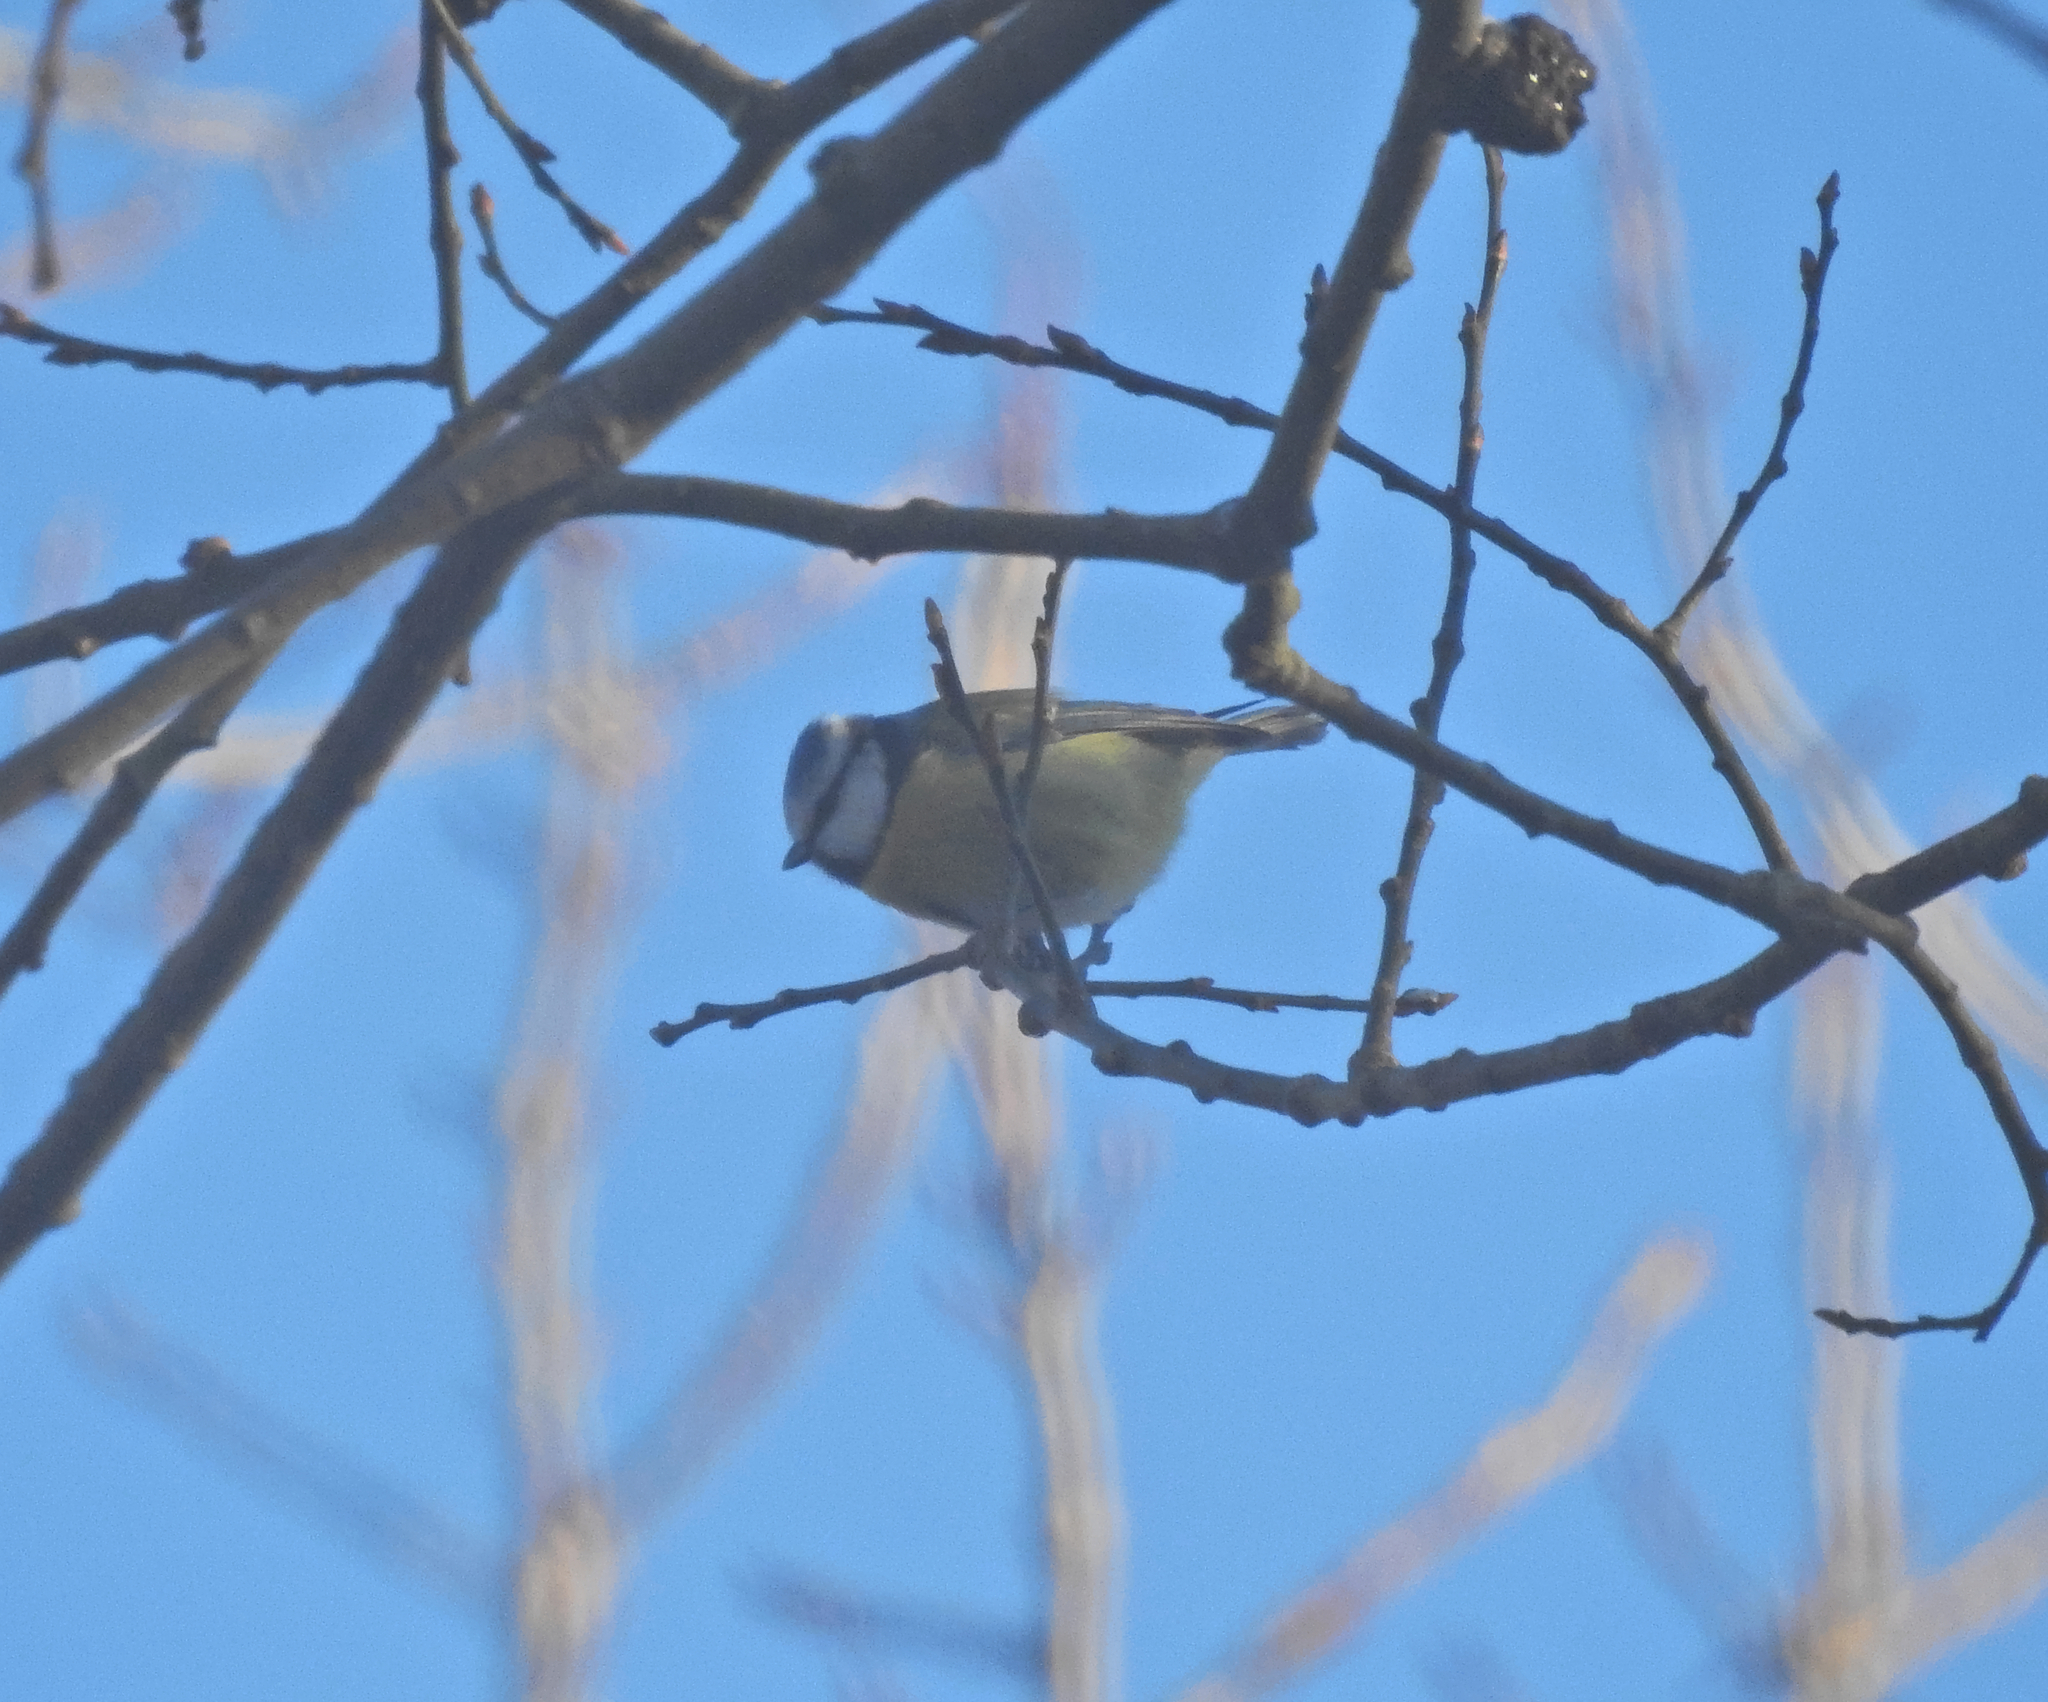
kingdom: Animalia
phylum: Chordata
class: Aves
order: Passeriformes
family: Paridae
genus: Cyanistes
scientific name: Cyanistes caeruleus
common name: Eurasian blue tit
